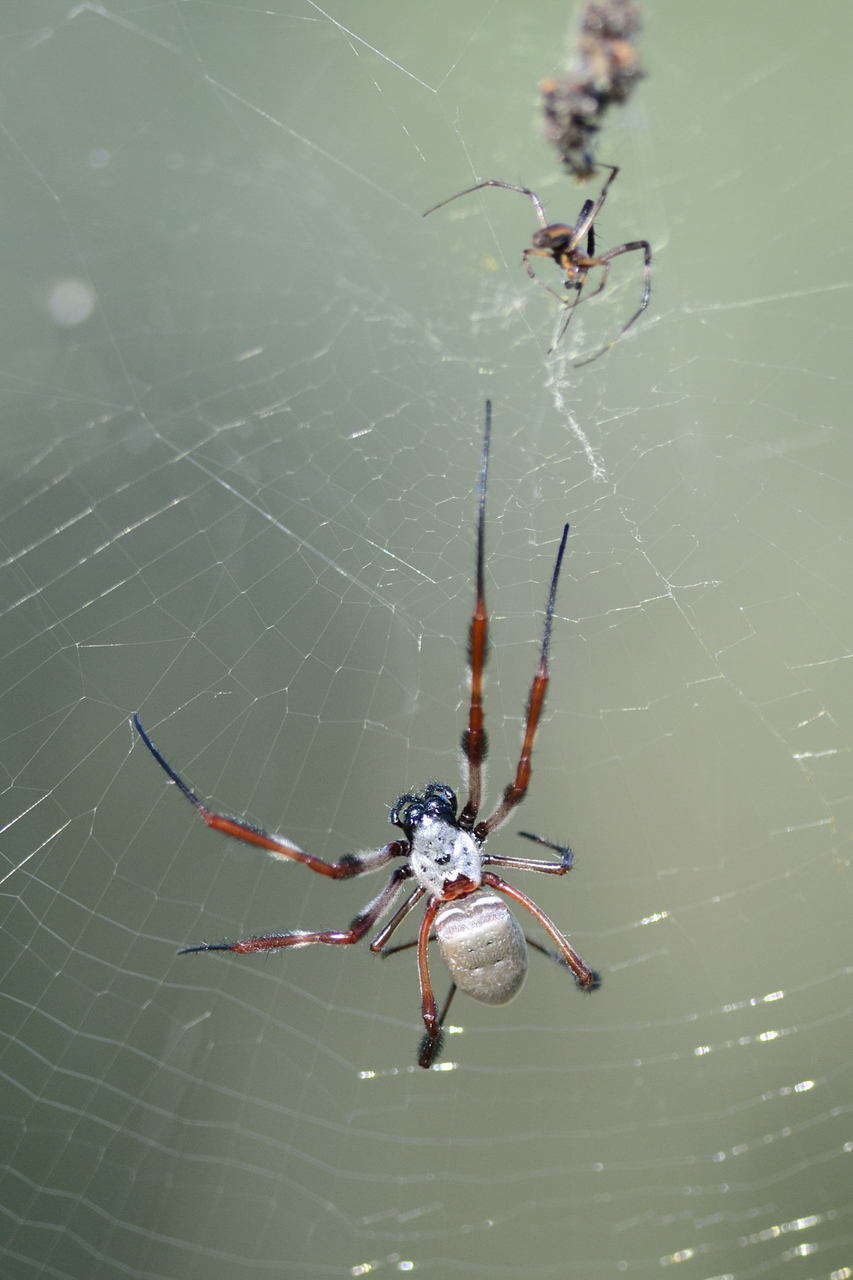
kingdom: Animalia
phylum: Arthropoda
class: Arachnida
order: Araneae
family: Araneidae
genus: Trichonephila
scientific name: Trichonephila edulis
